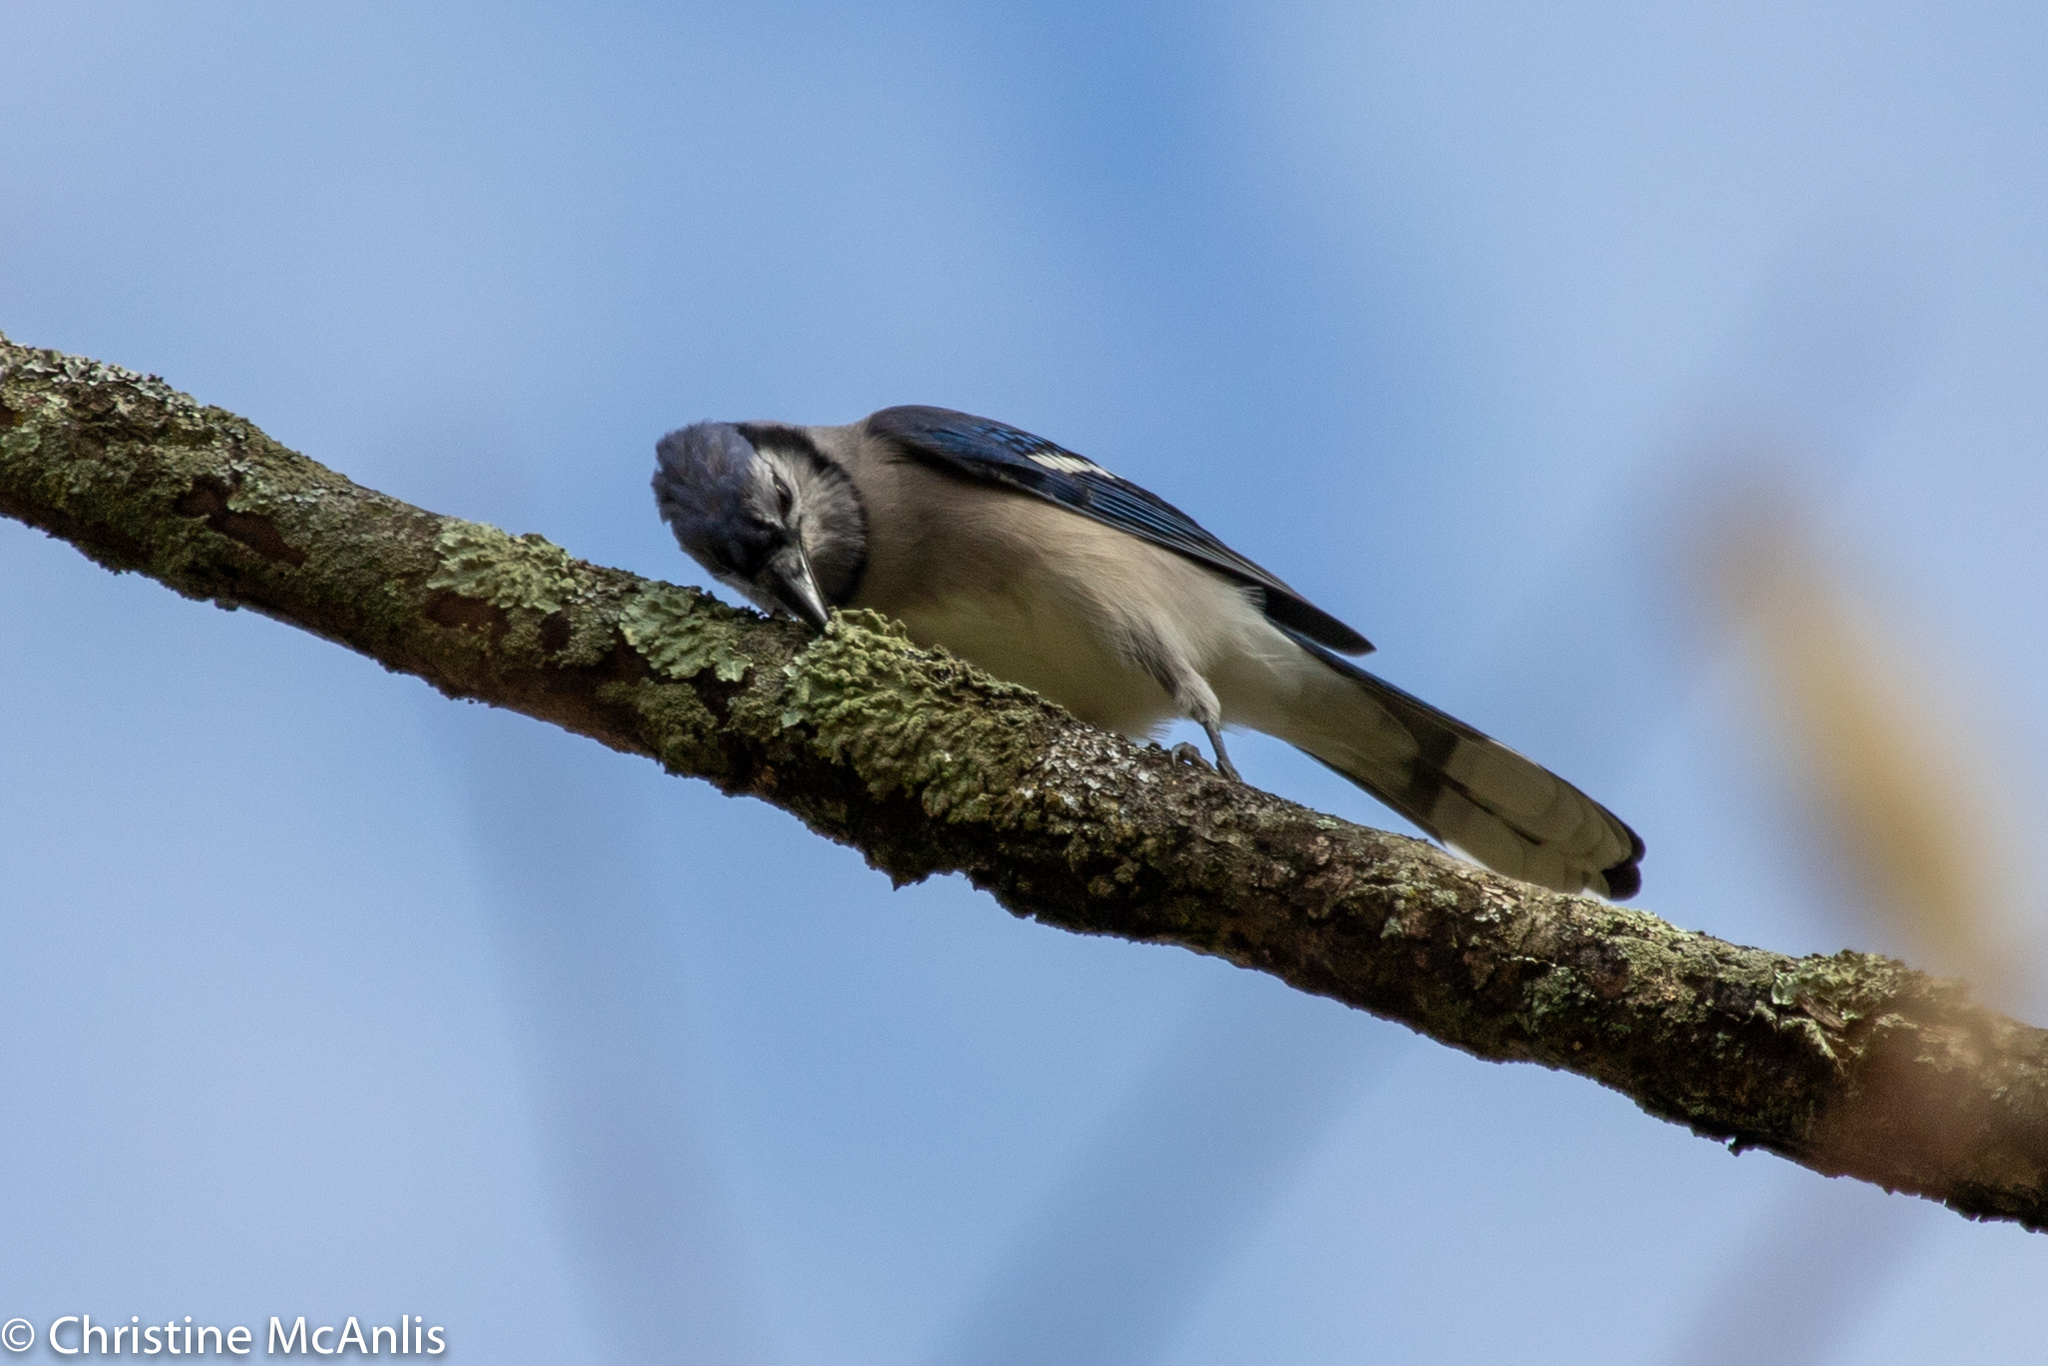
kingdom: Animalia
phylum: Chordata
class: Aves
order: Passeriformes
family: Corvidae
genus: Cyanocitta
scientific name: Cyanocitta cristata
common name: Blue jay
